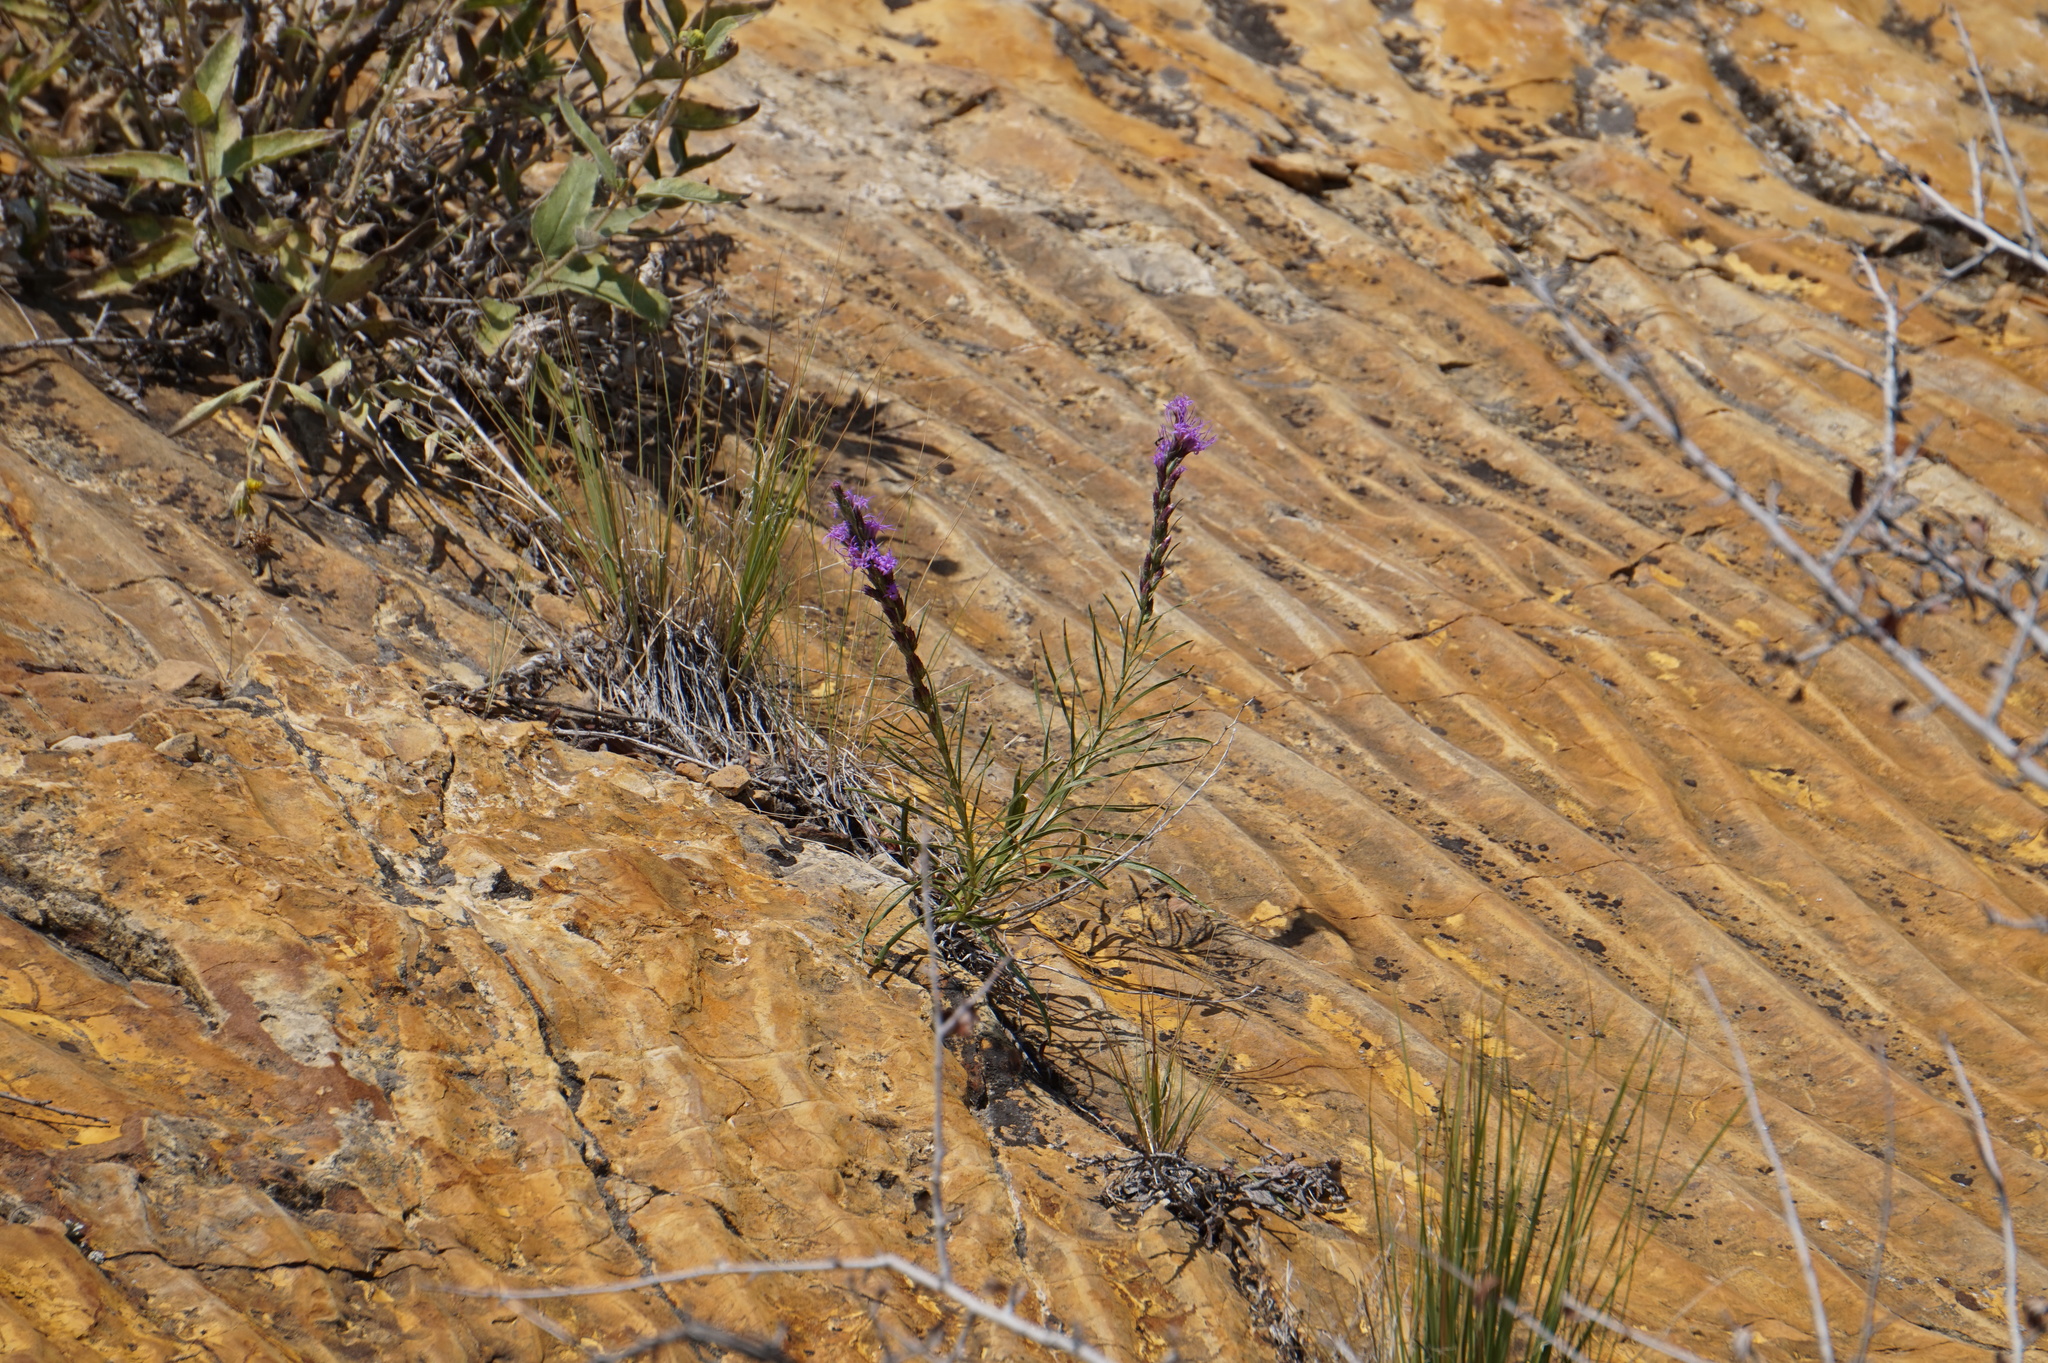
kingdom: Plantae
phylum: Tracheophyta
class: Magnoliopsida
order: Asterales
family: Asteraceae
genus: Liatris
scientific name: Liatris punctata
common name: Dotted gayfeather
